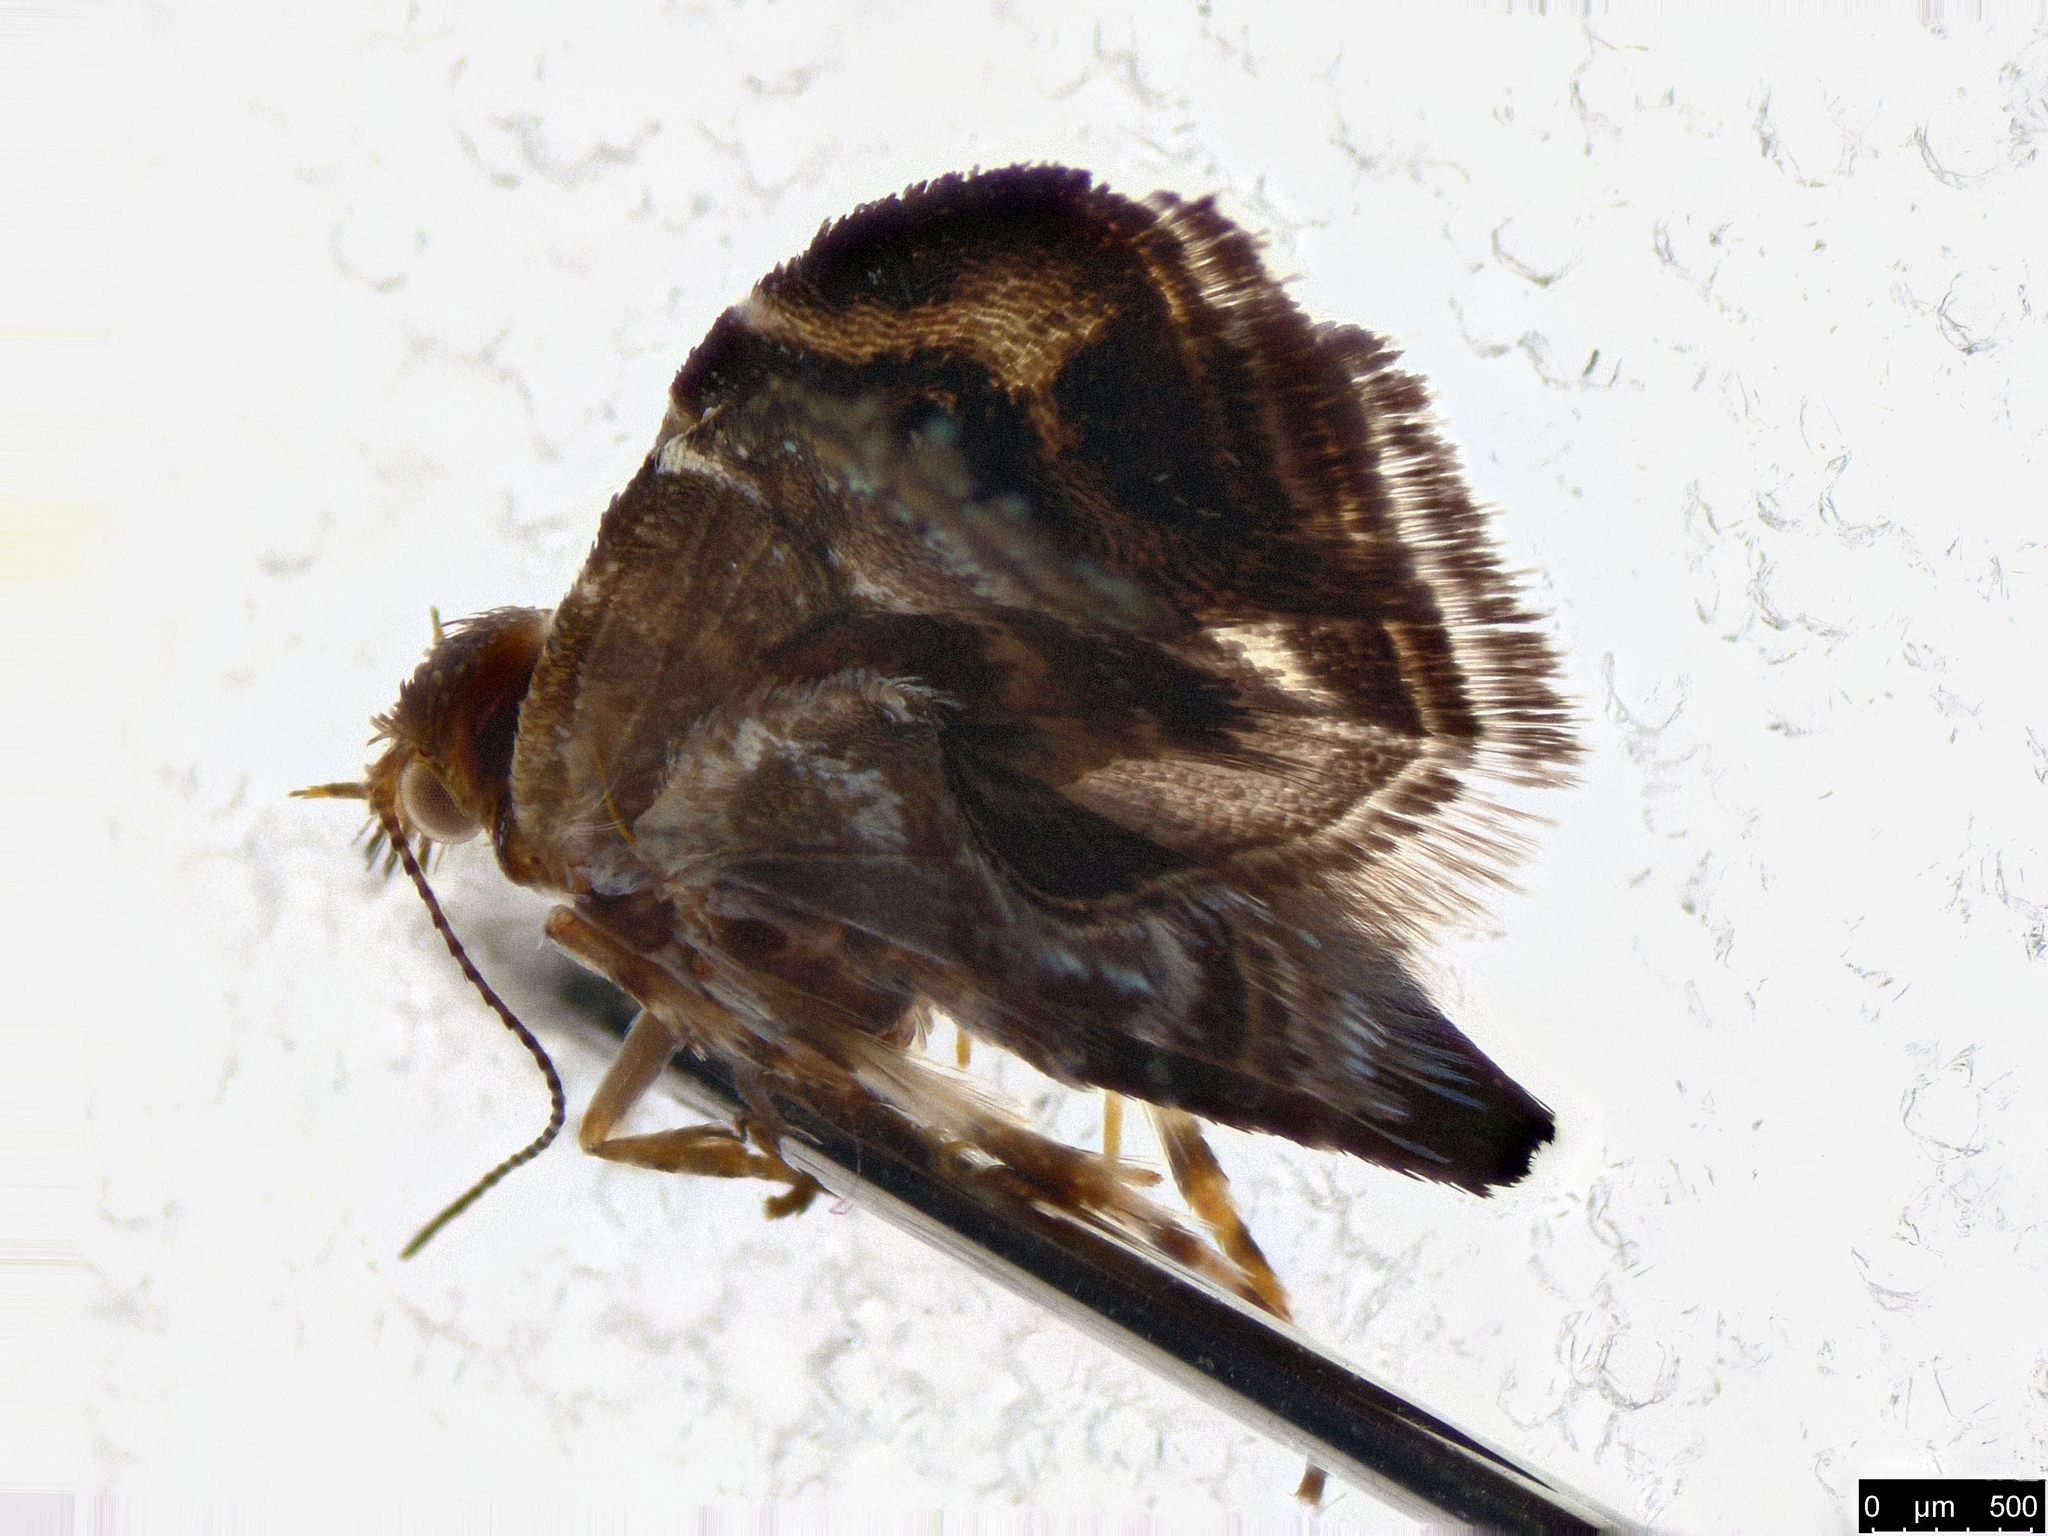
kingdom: Animalia
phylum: Arthropoda
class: Insecta
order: Lepidoptera
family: Choreutidae
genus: Tebenna
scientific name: Tebenna micalis
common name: Vagrant twitcher
